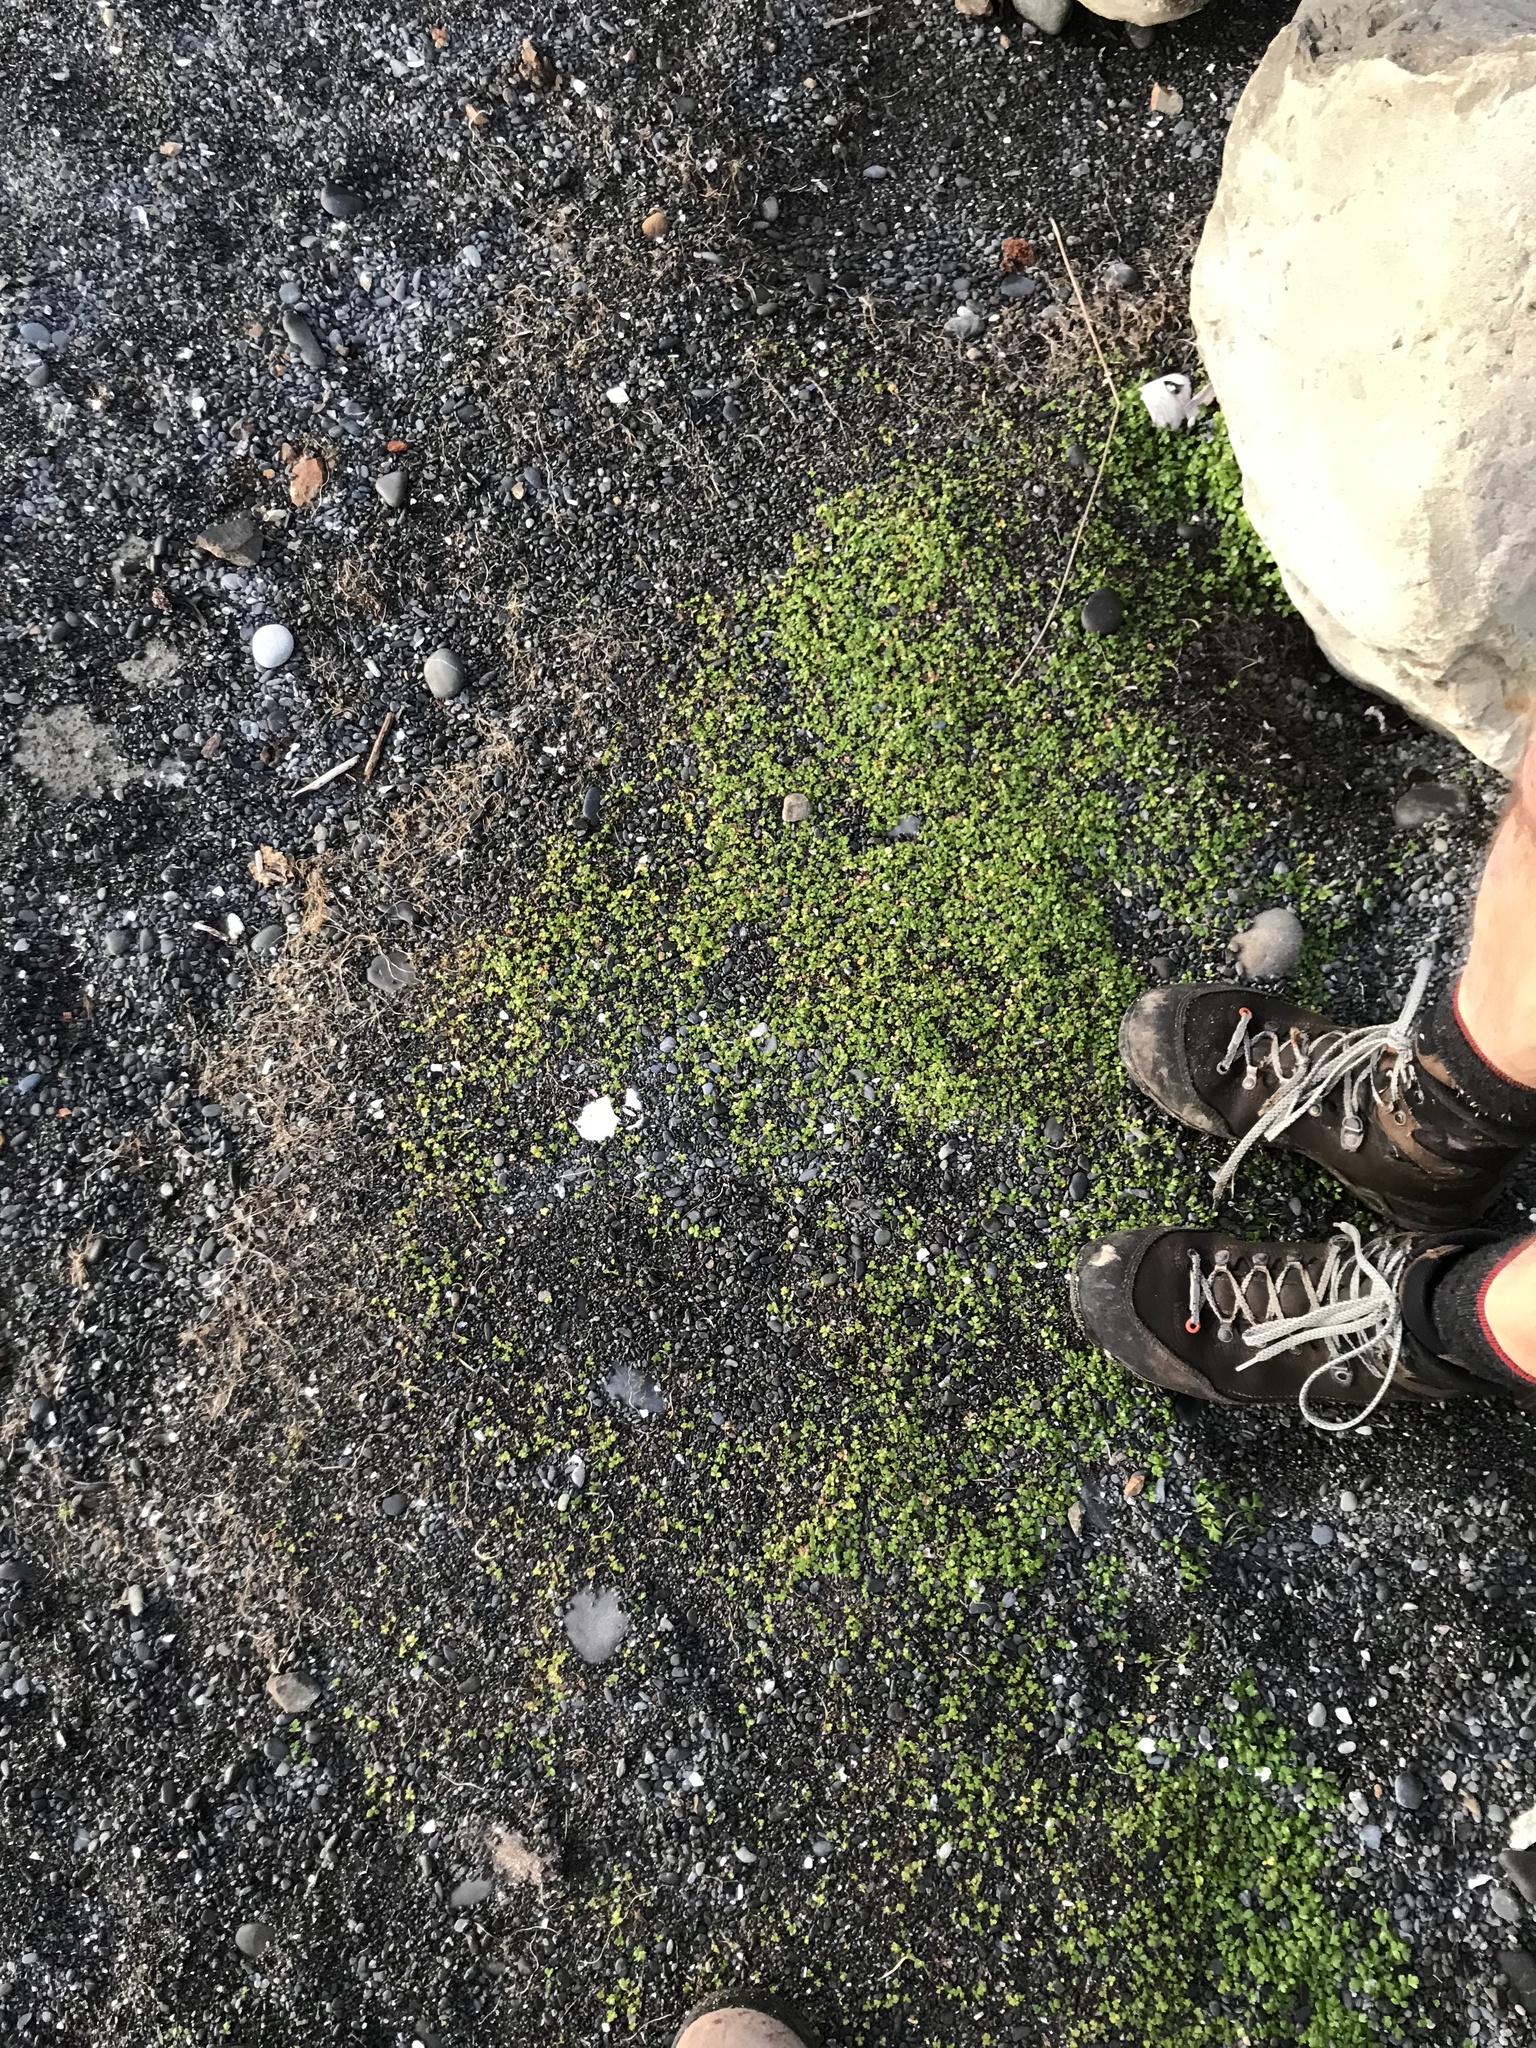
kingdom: Plantae
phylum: Tracheophyta
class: Magnoliopsida
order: Ranunculales
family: Ranunculaceae
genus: Ranunculus
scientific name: Ranunculus acaulis
